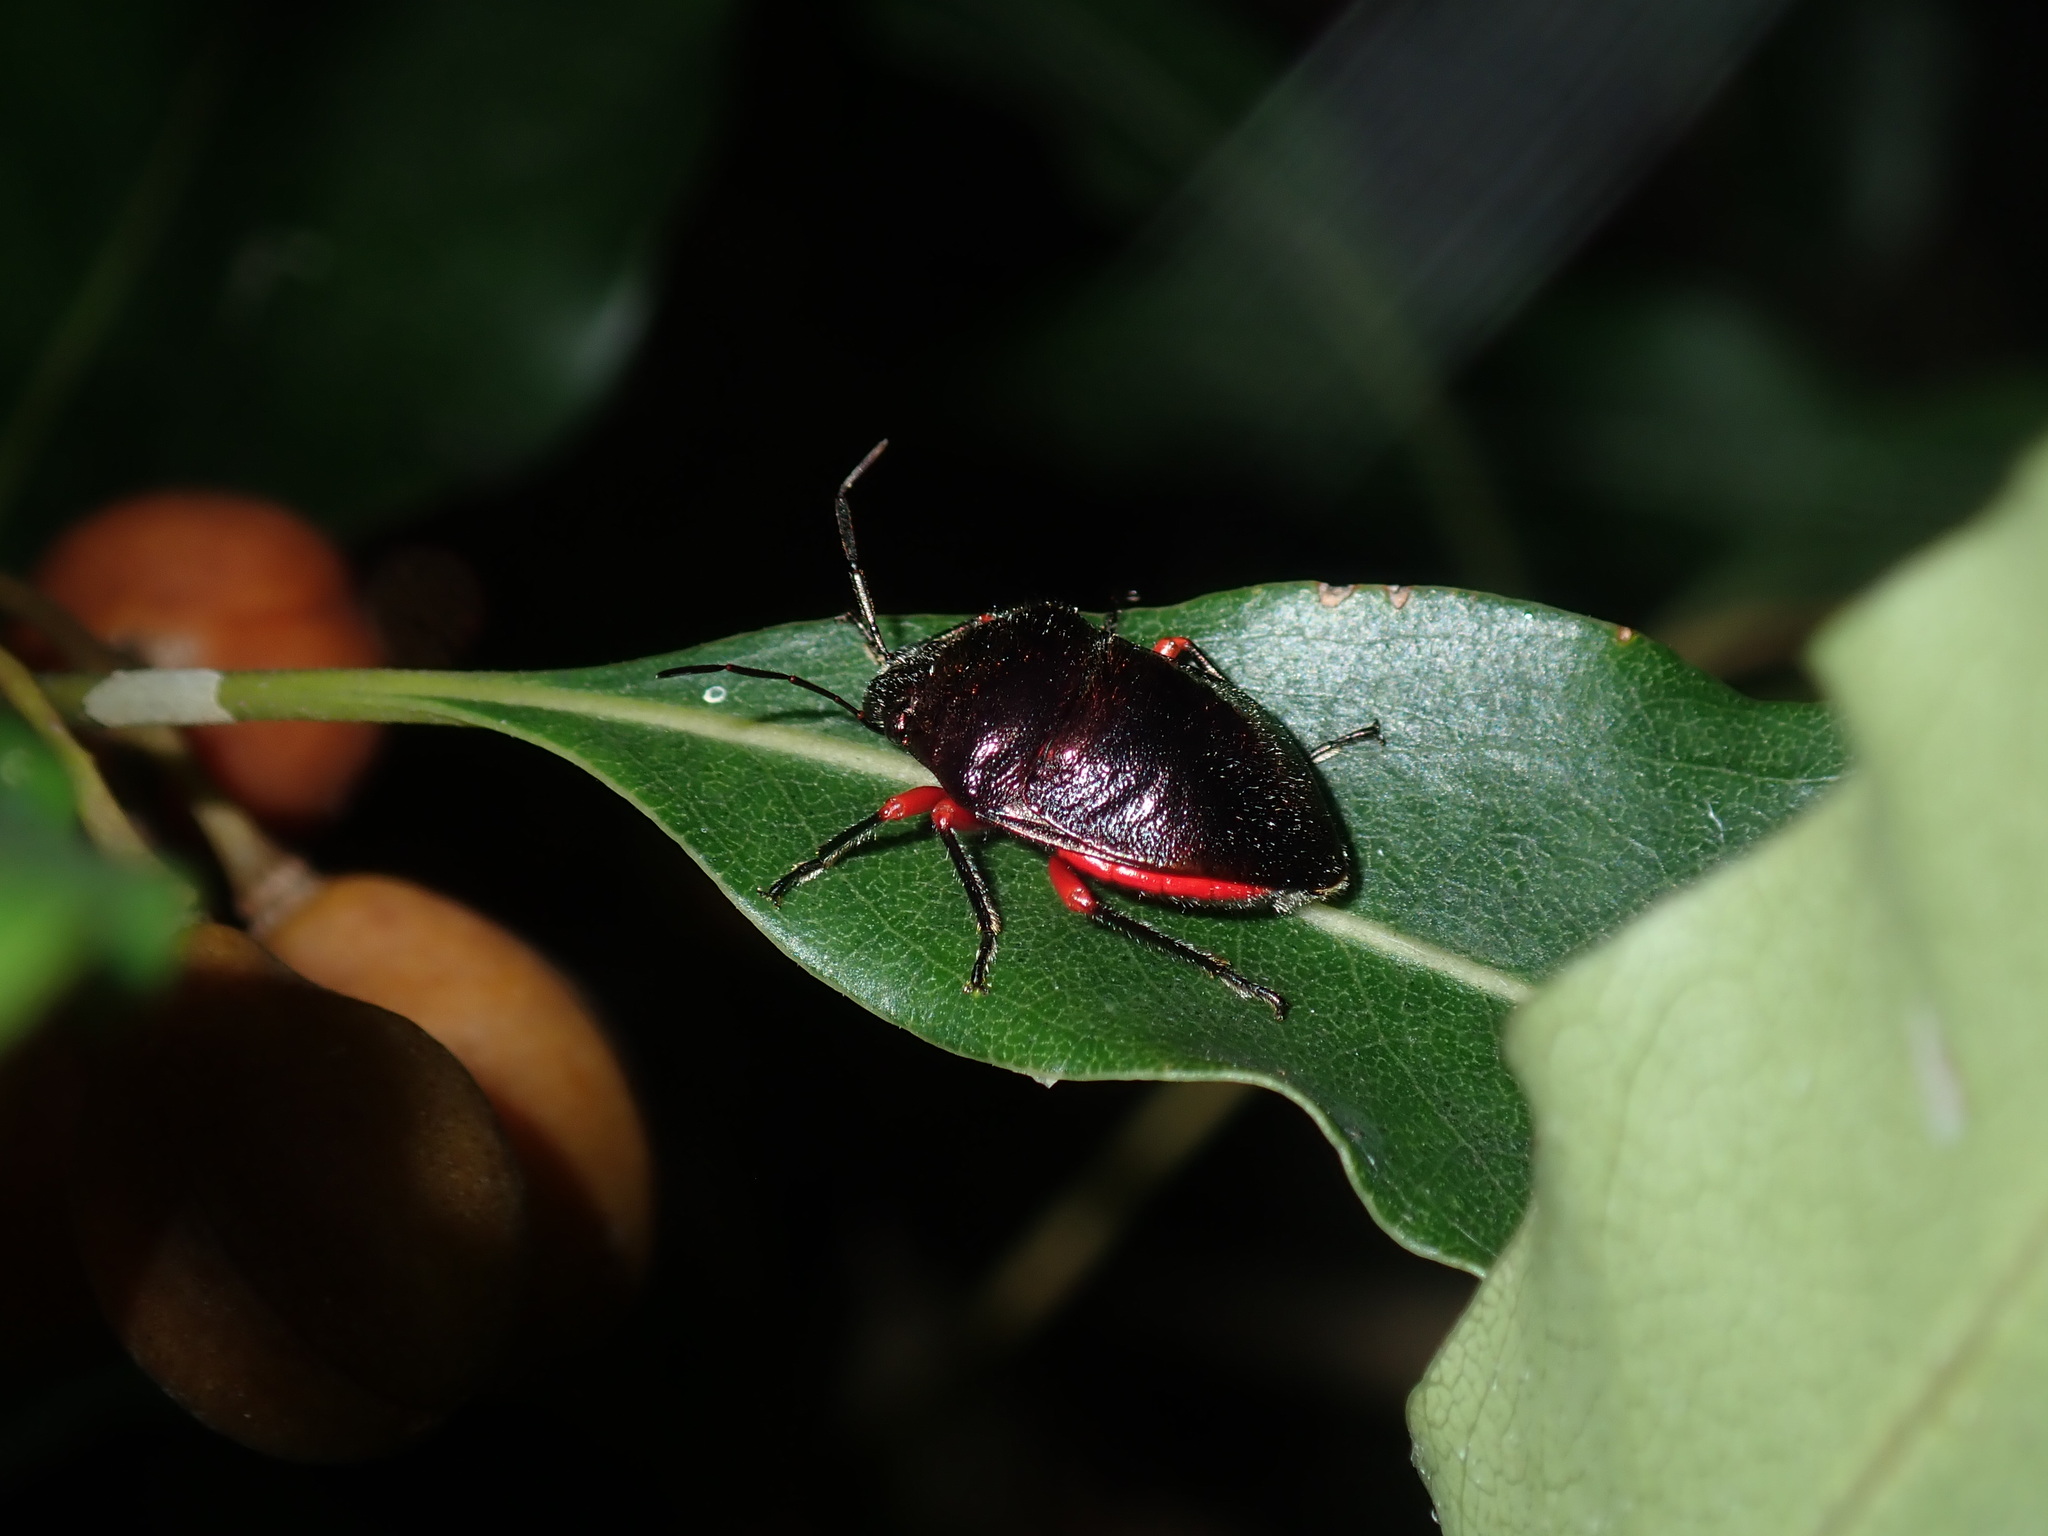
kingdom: Animalia
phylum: Arthropoda
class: Insecta
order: Hemiptera
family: Scutelleridae
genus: Lampromicra
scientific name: Lampromicra
